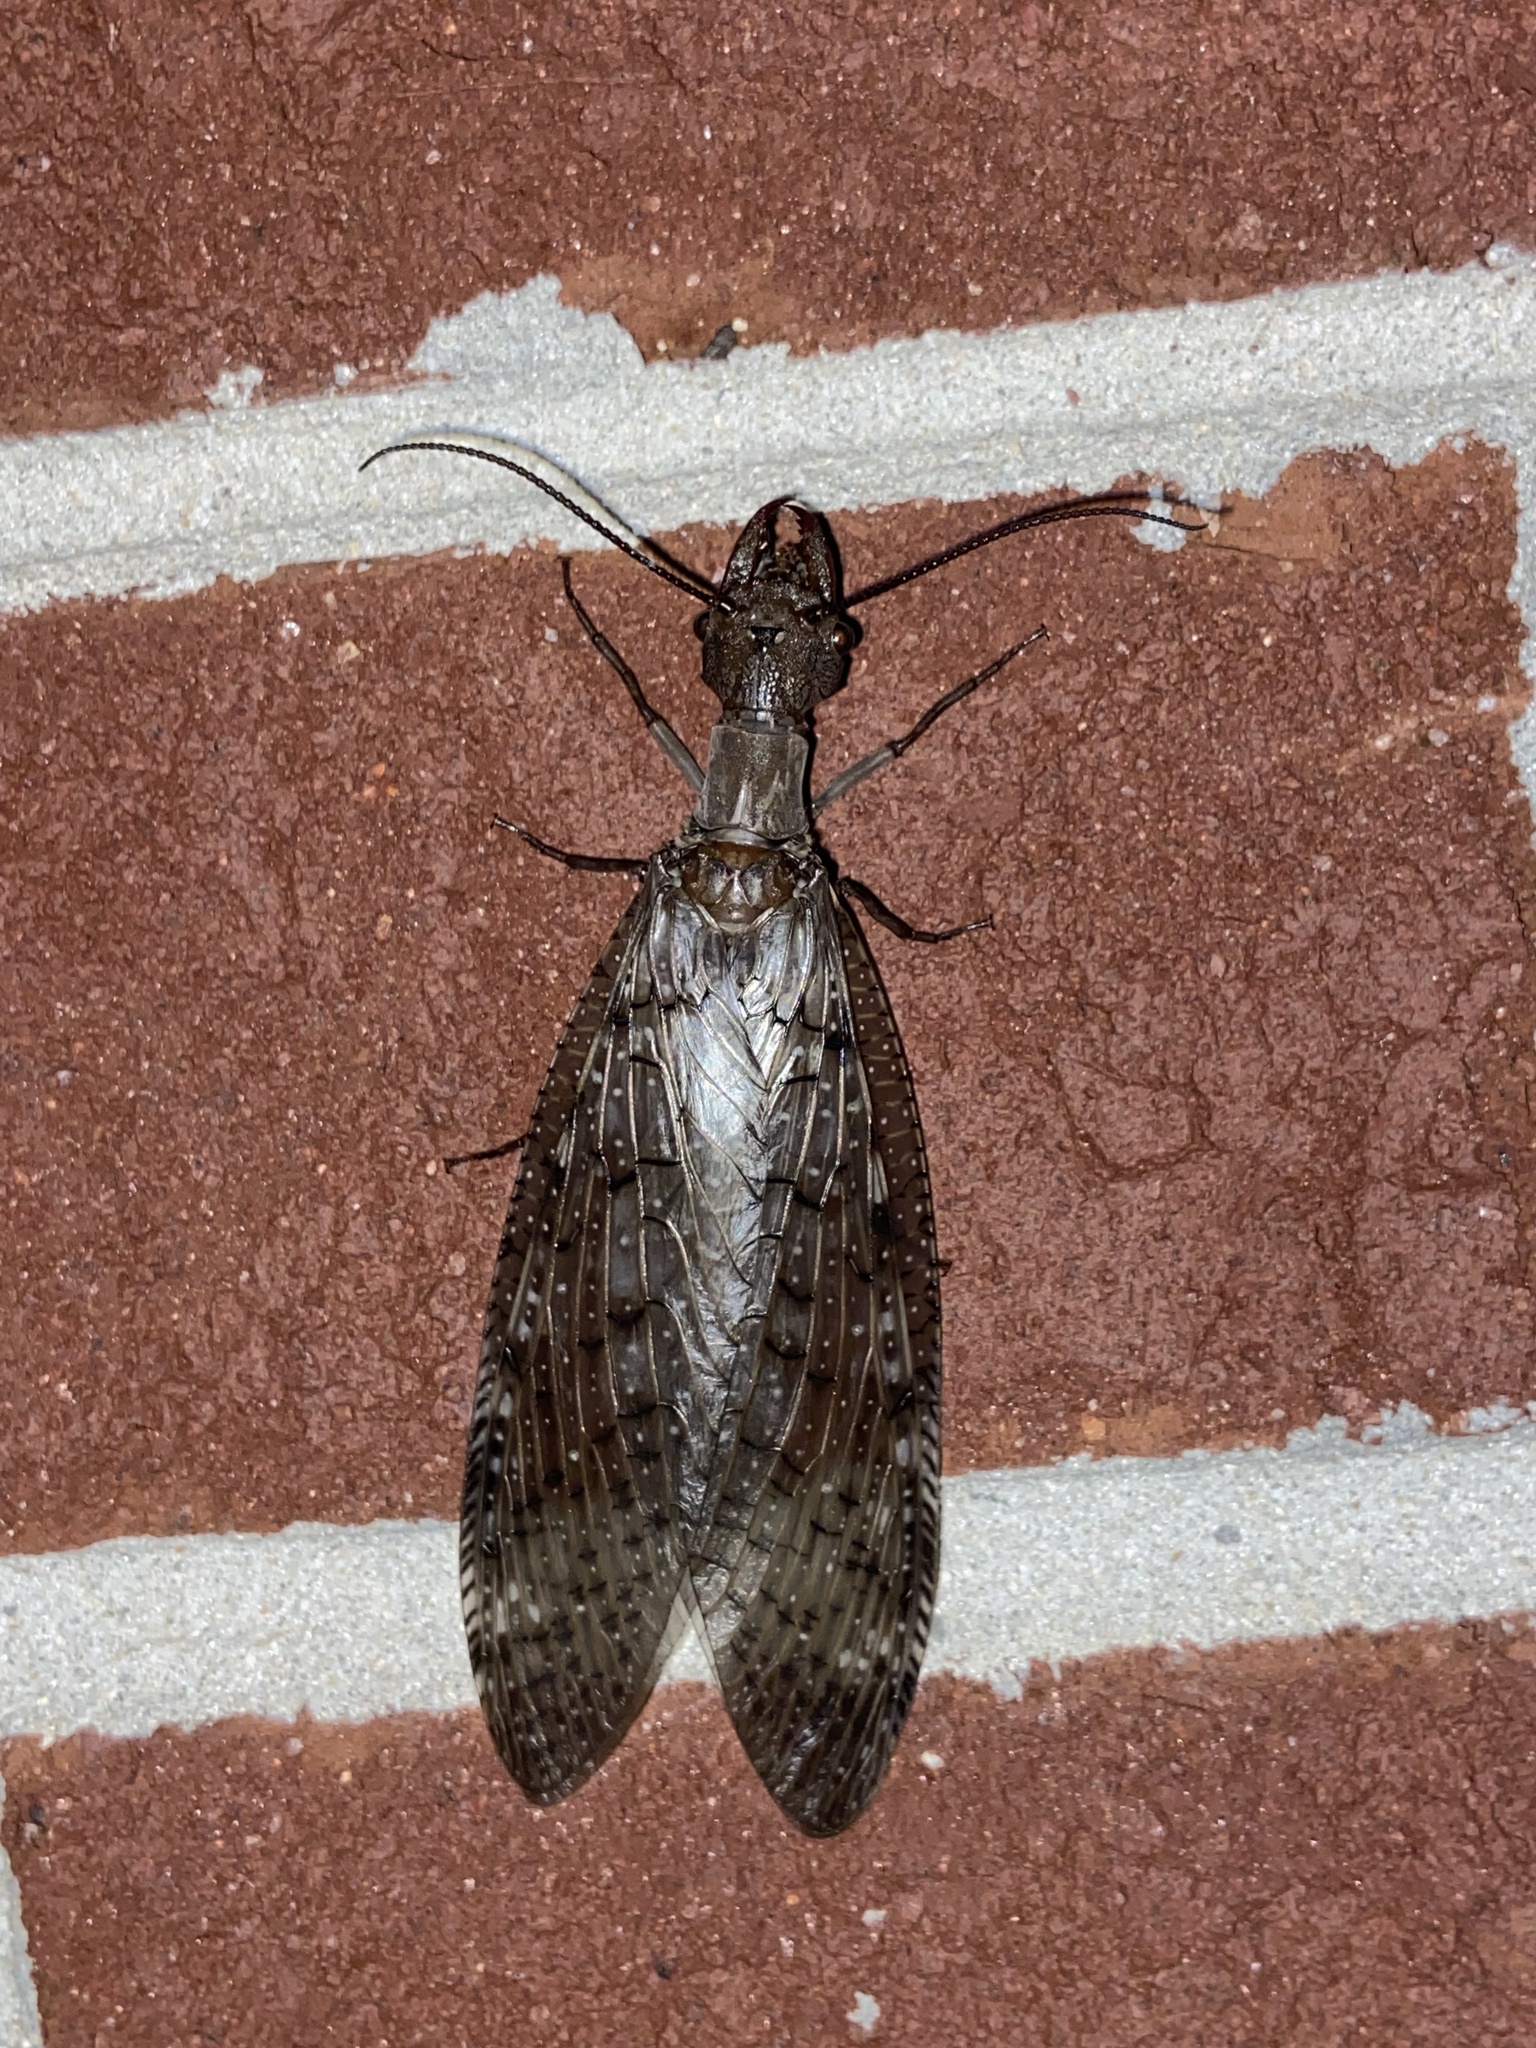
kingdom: Animalia
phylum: Arthropoda
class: Insecta
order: Megaloptera
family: Corydalidae
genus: Corydalus
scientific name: Corydalus cornutus
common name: Dobsonfly
